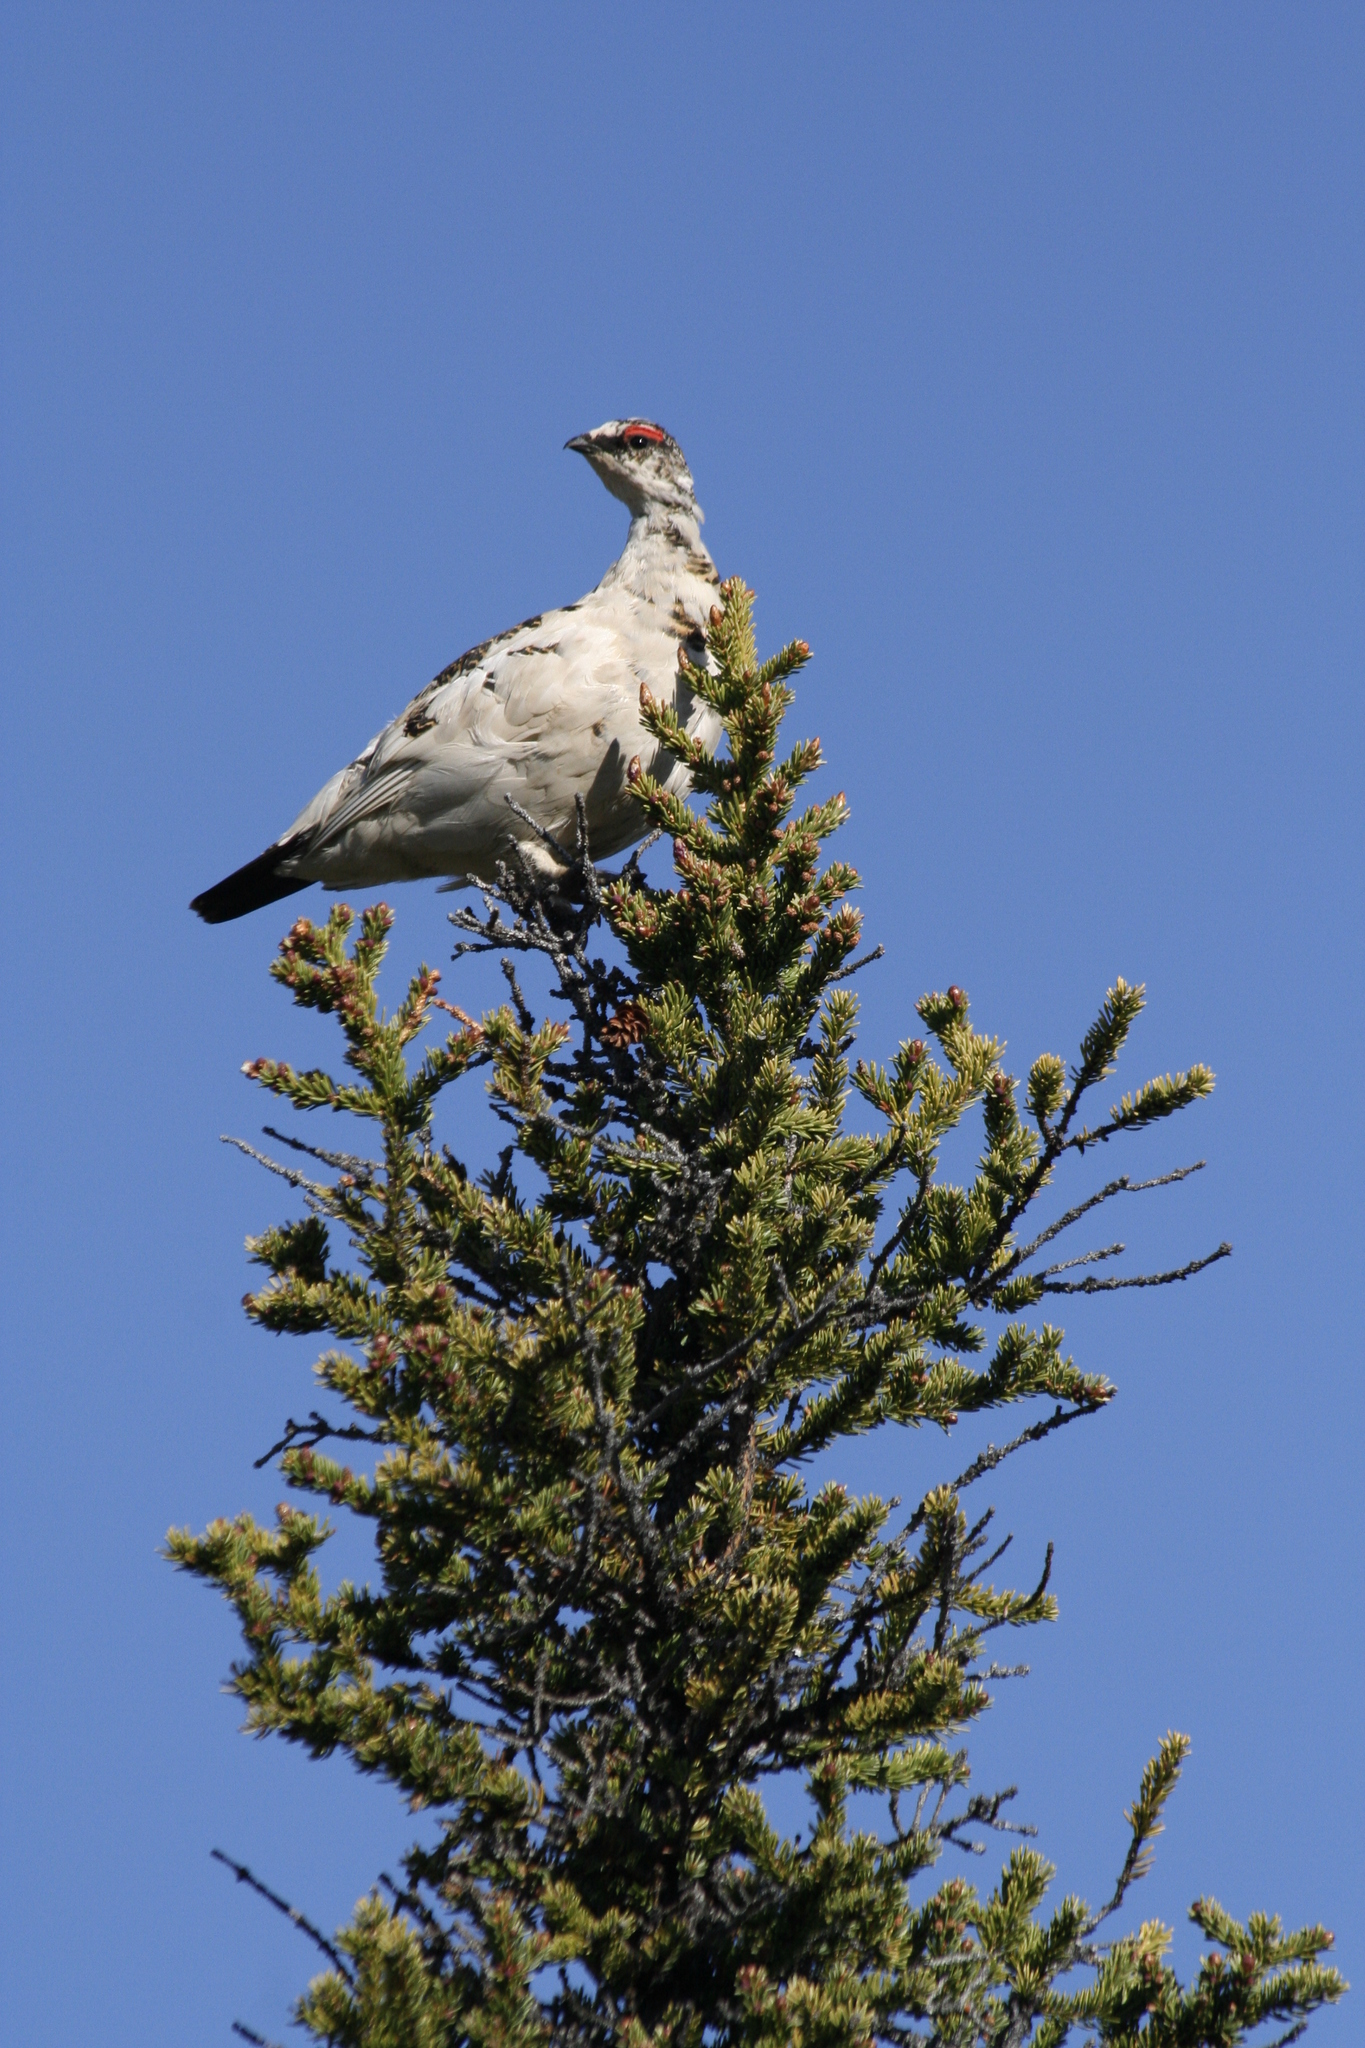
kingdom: Animalia
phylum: Chordata
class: Aves
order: Galliformes
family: Phasianidae
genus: Lagopus
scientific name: Lagopus muta
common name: Rock ptarmigan
